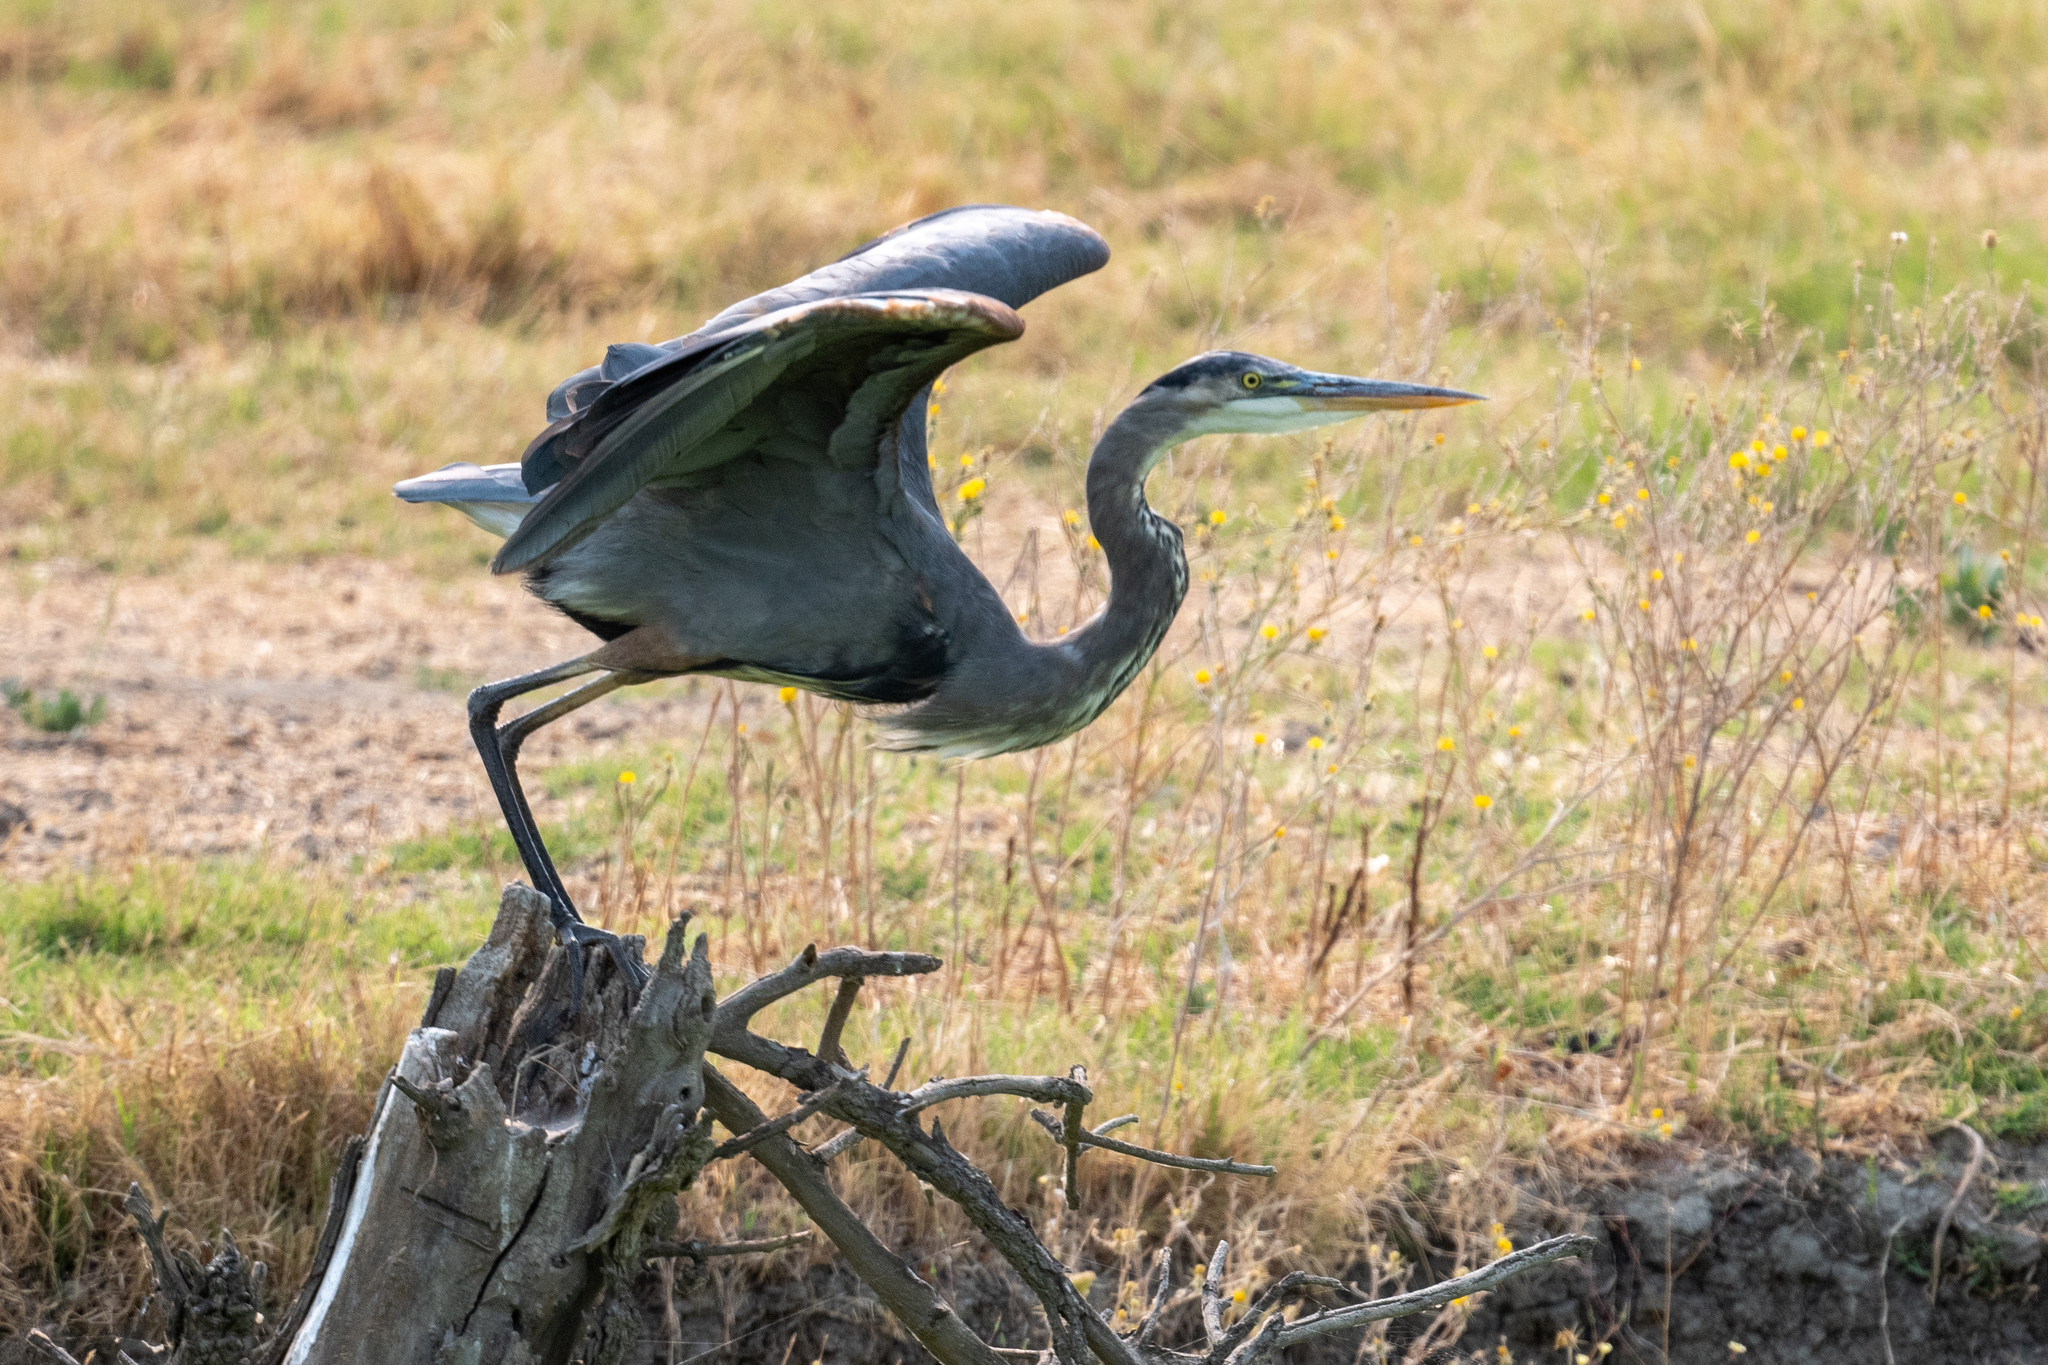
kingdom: Animalia
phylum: Chordata
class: Aves
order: Pelecaniformes
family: Ardeidae
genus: Ardea
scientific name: Ardea herodias
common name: Great blue heron
